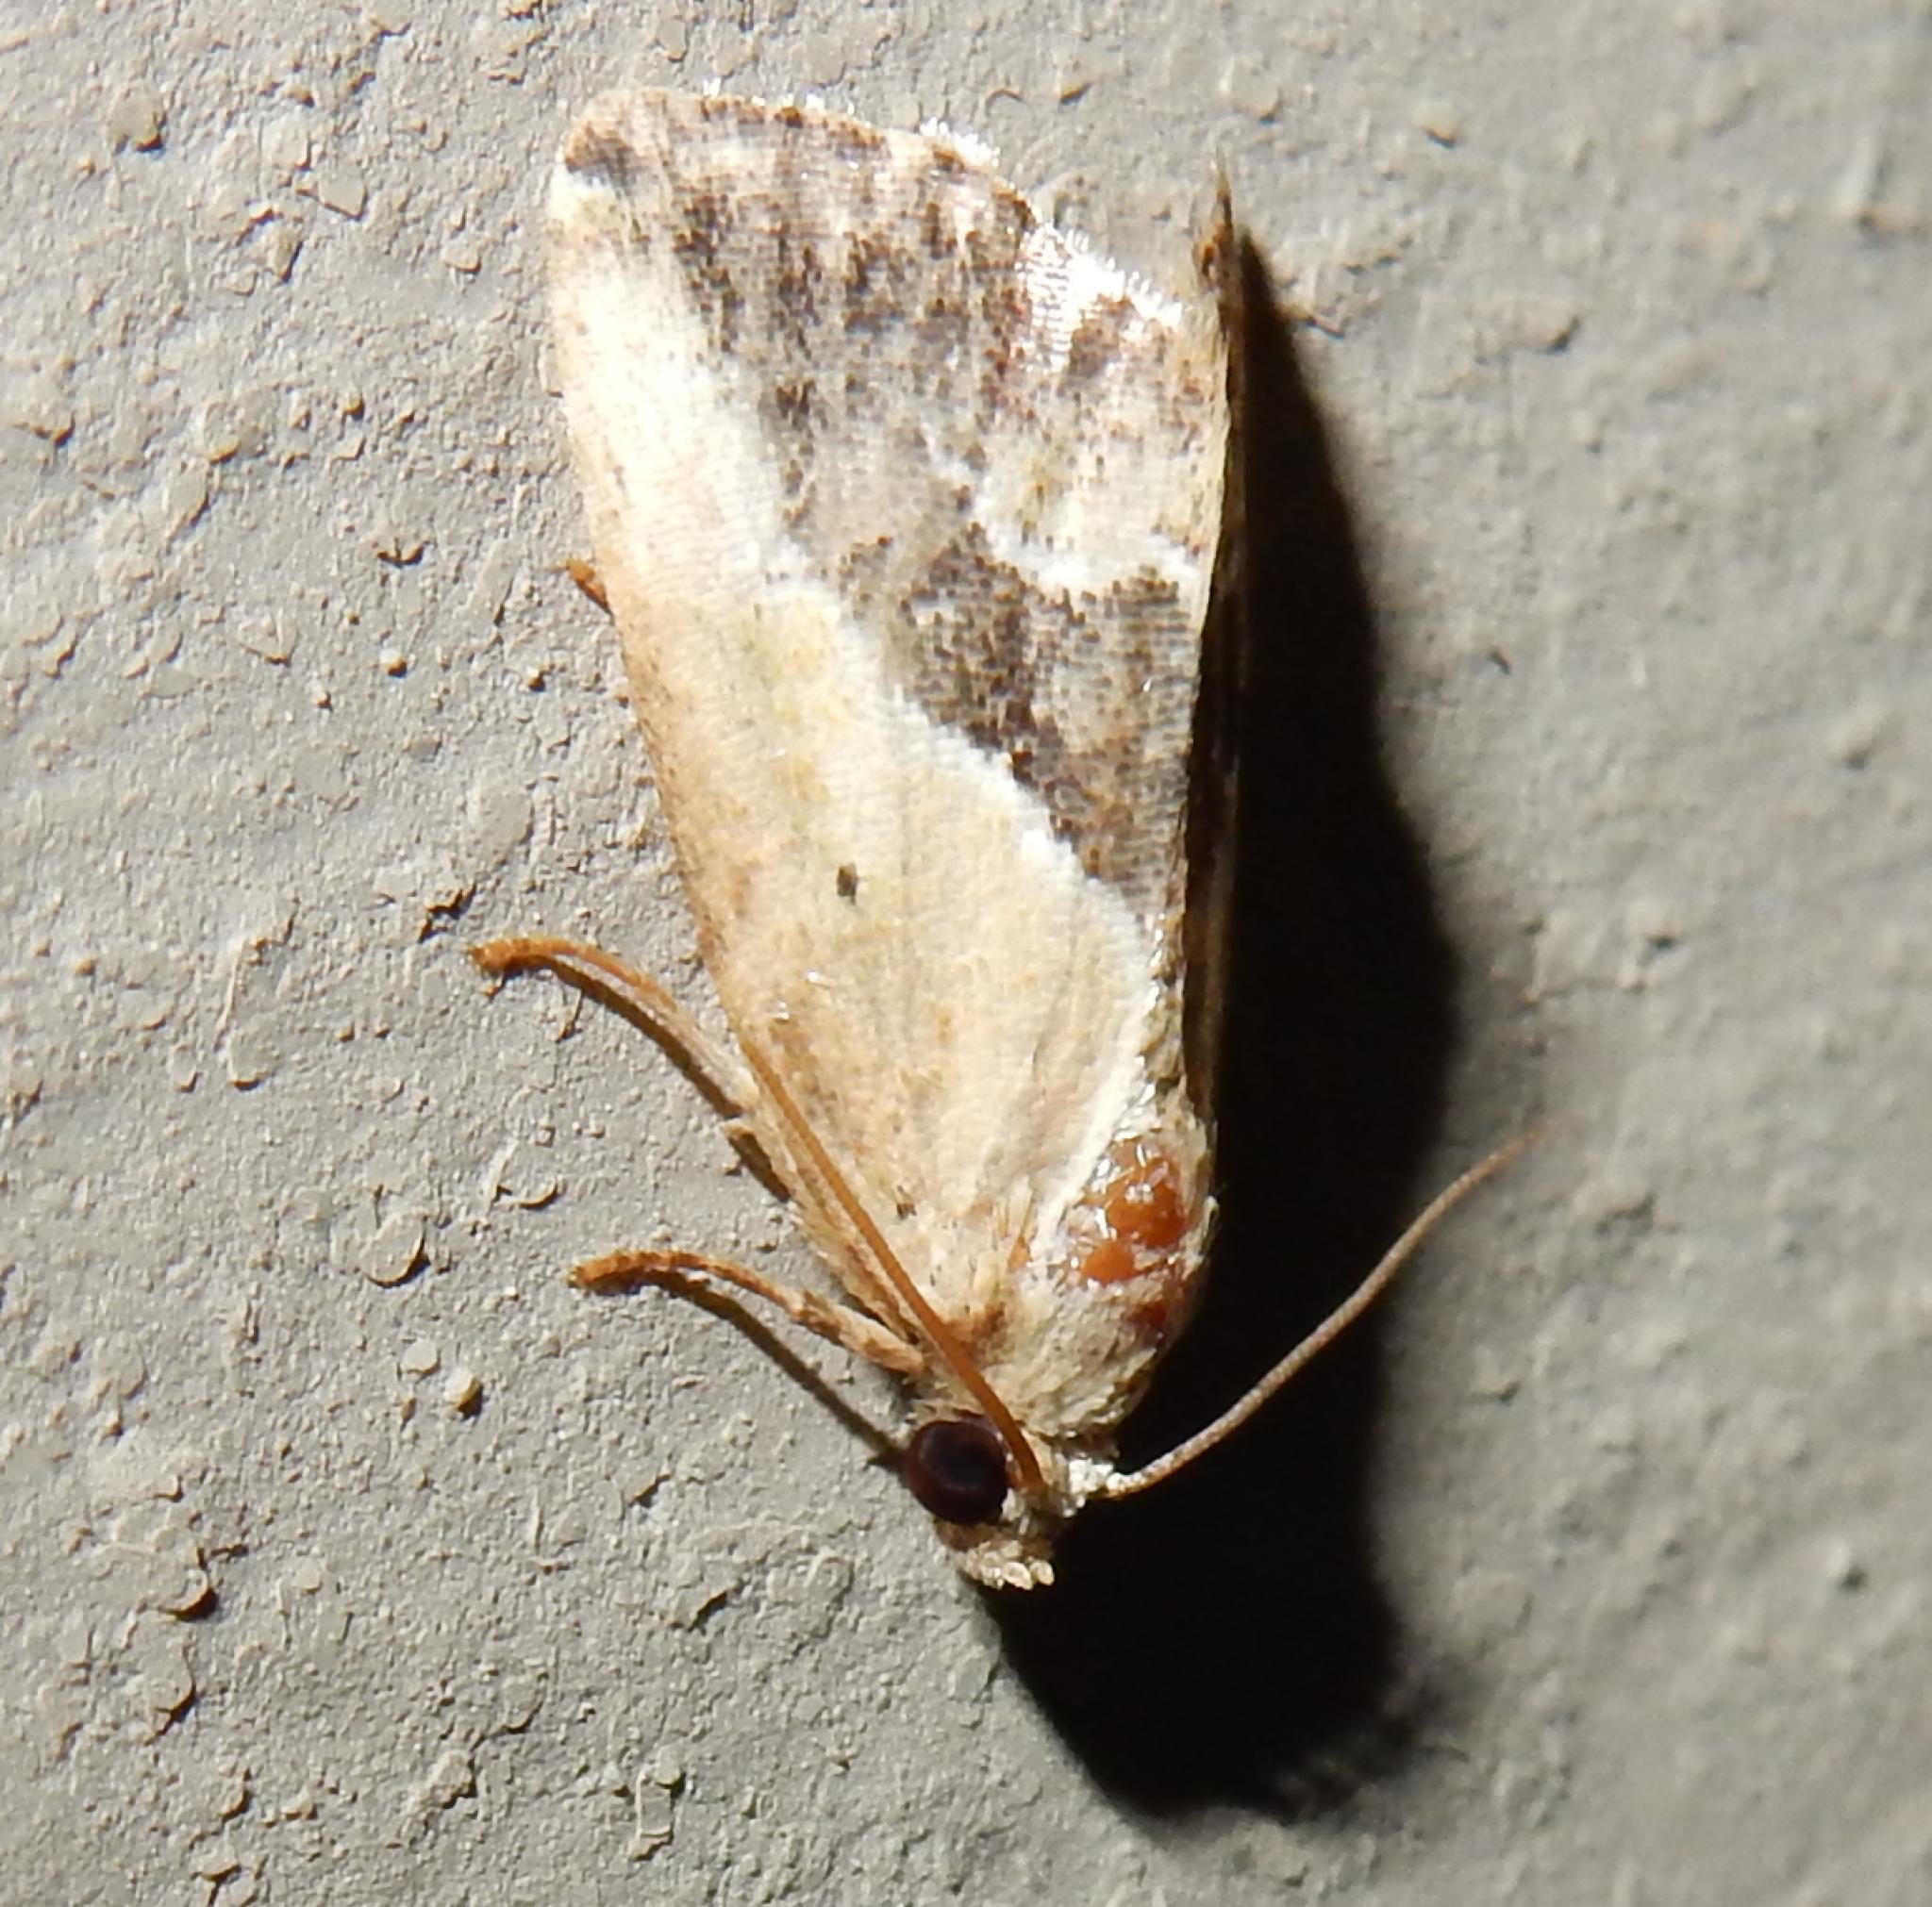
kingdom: Animalia
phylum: Arthropoda
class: Insecta
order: Lepidoptera
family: Noctuidae
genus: Lithacodia
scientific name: Lithacodia caffristis
